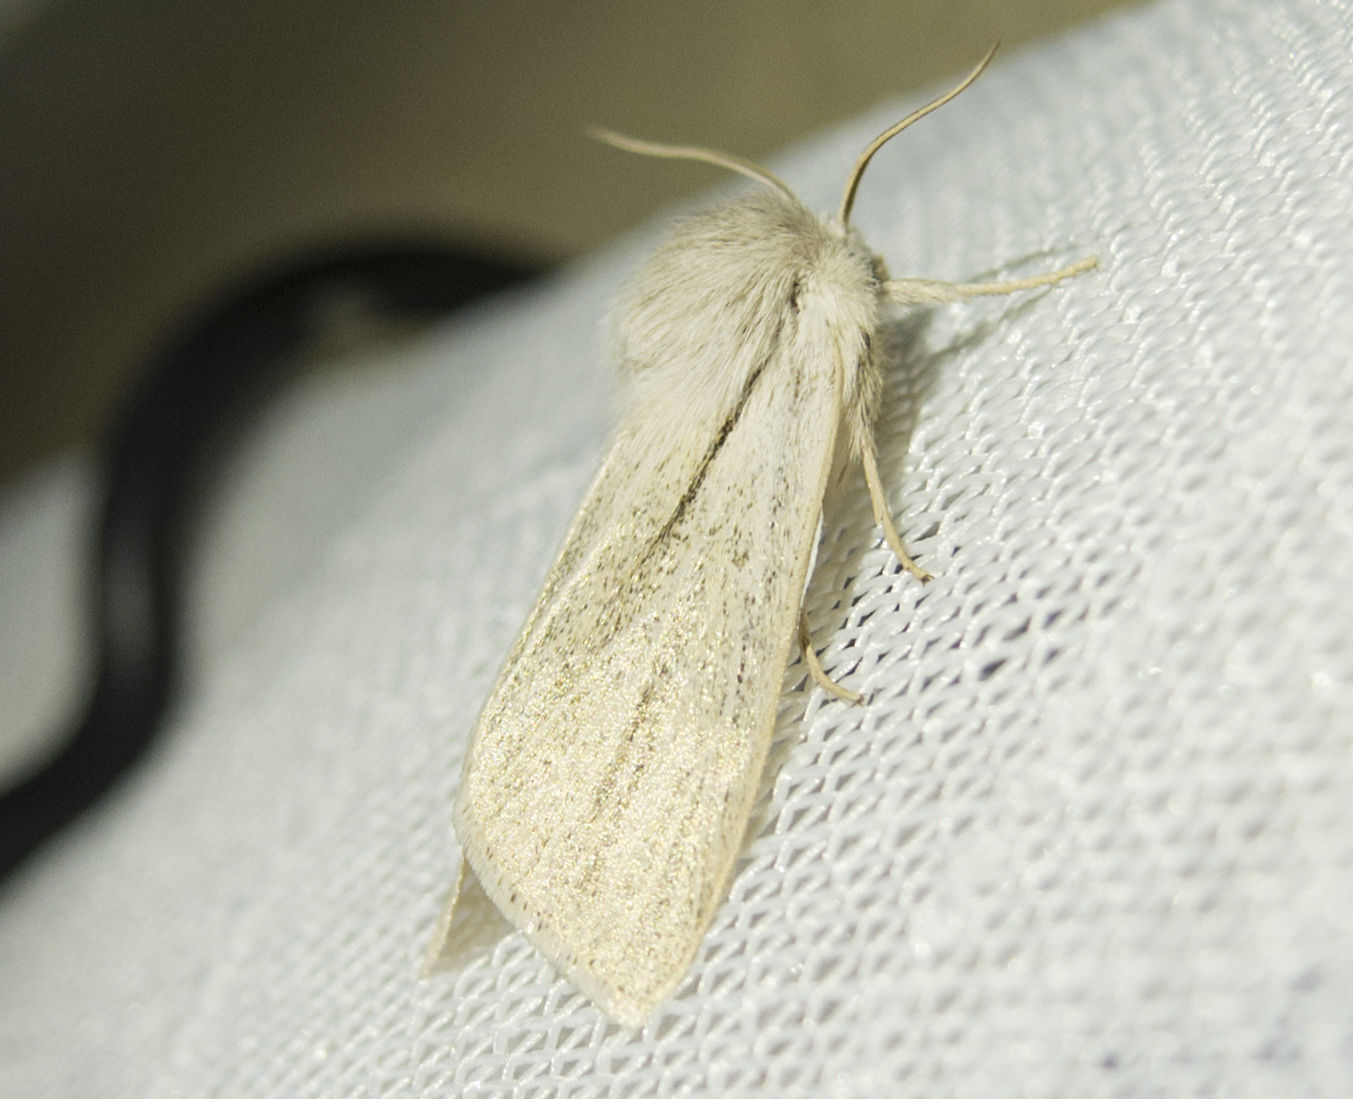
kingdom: Animalia
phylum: Arthropoda
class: Insecta
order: Lepidoptera
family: Noctuidae
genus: Simyra
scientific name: Simyra albovenosa
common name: Reed dagger
